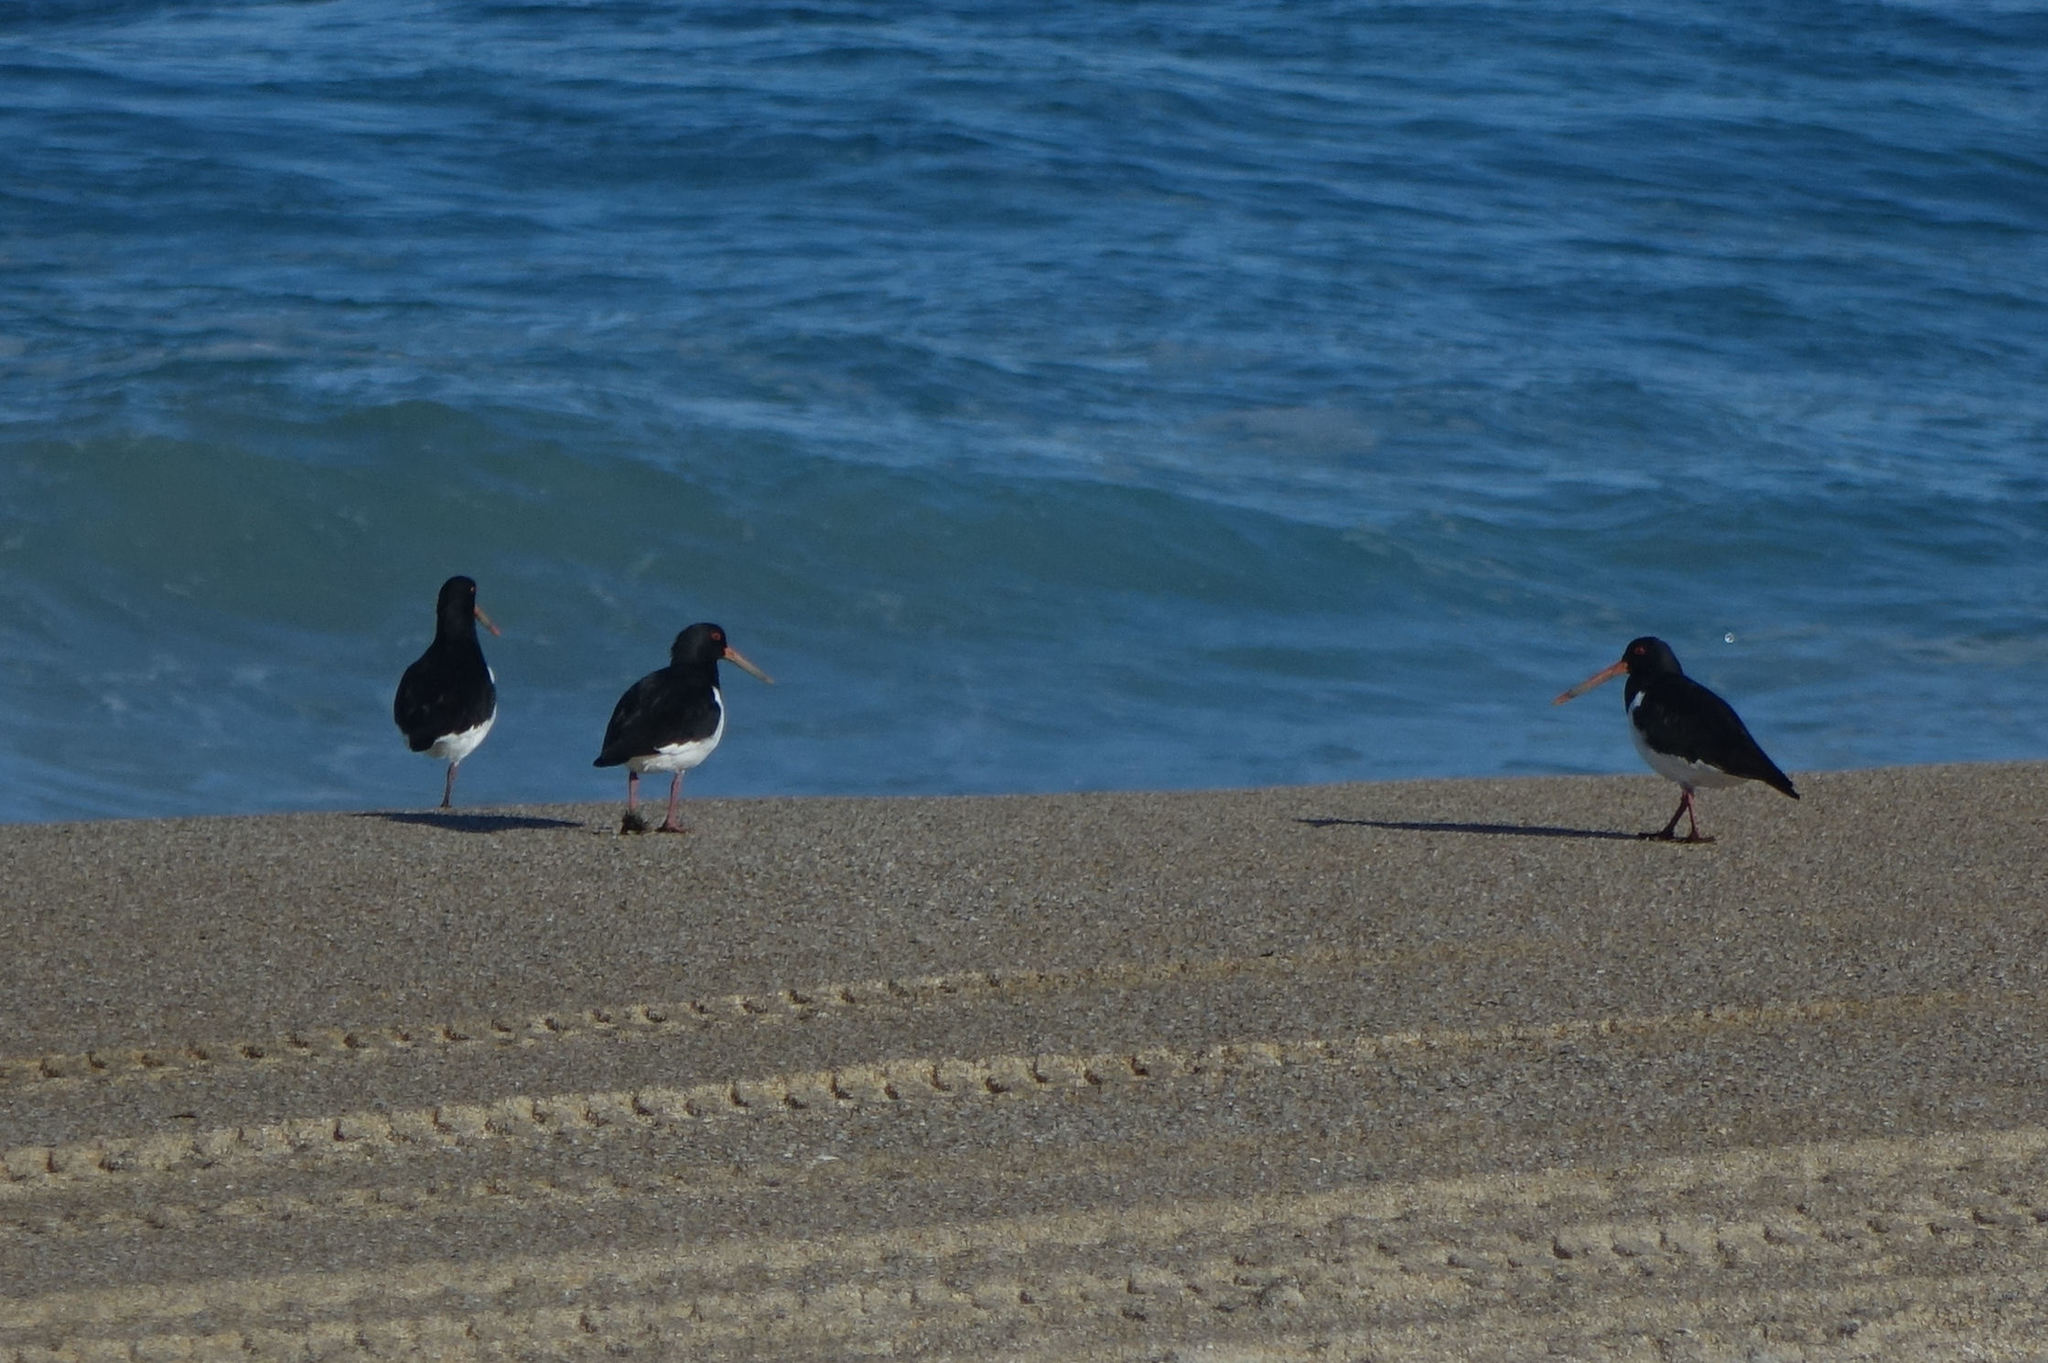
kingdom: Animalia
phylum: Chordata
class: Aves
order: Charadriiformes
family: Haematopodidae
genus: Haematopus
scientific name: Haematopus finschi
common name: South island oystercatcher
